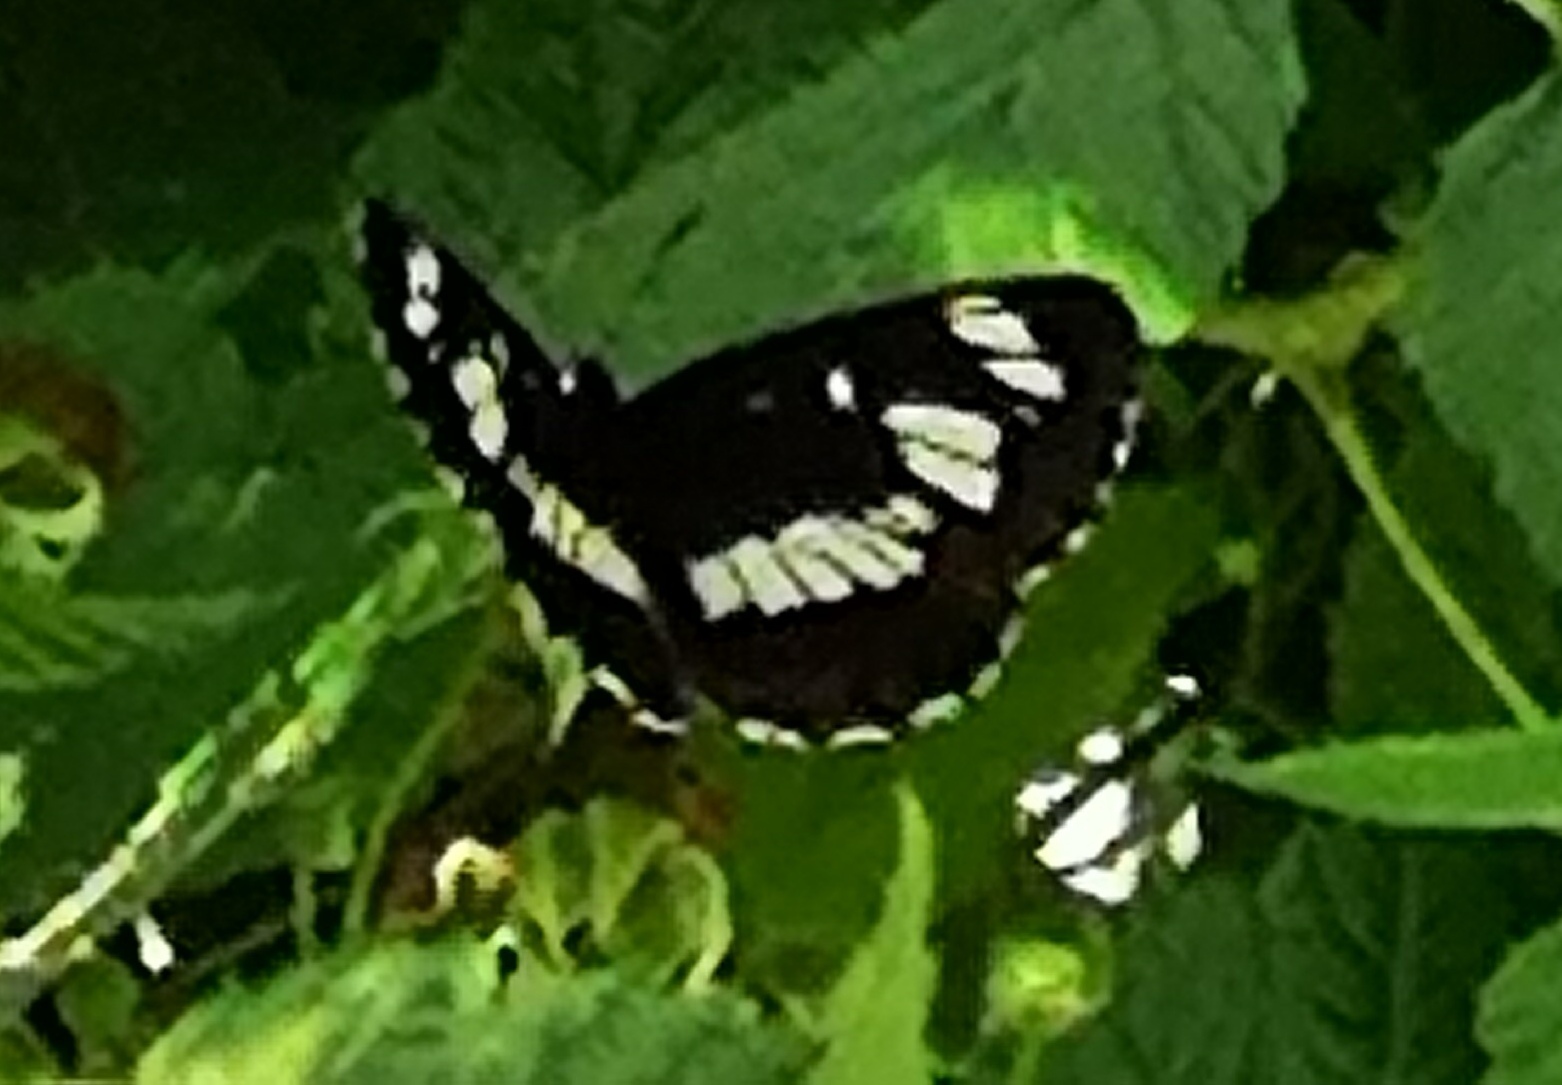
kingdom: Animalia
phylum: Arthropoda
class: Insecta
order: Lepidoptera
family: Nymphalidae
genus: Neptis
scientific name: Neptis rivularis
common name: Hungarian glider
